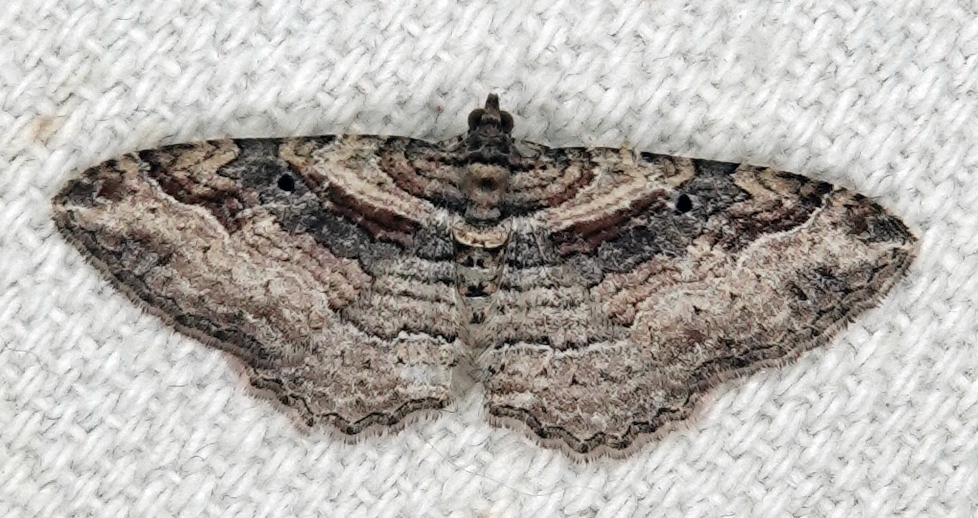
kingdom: Animalia
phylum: Arthropoda
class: Insecta
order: Lepidoptera
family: Geometridae
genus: Costaconvexa
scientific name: Costaconvexa centrostrigaria
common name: Bent-line carpet
